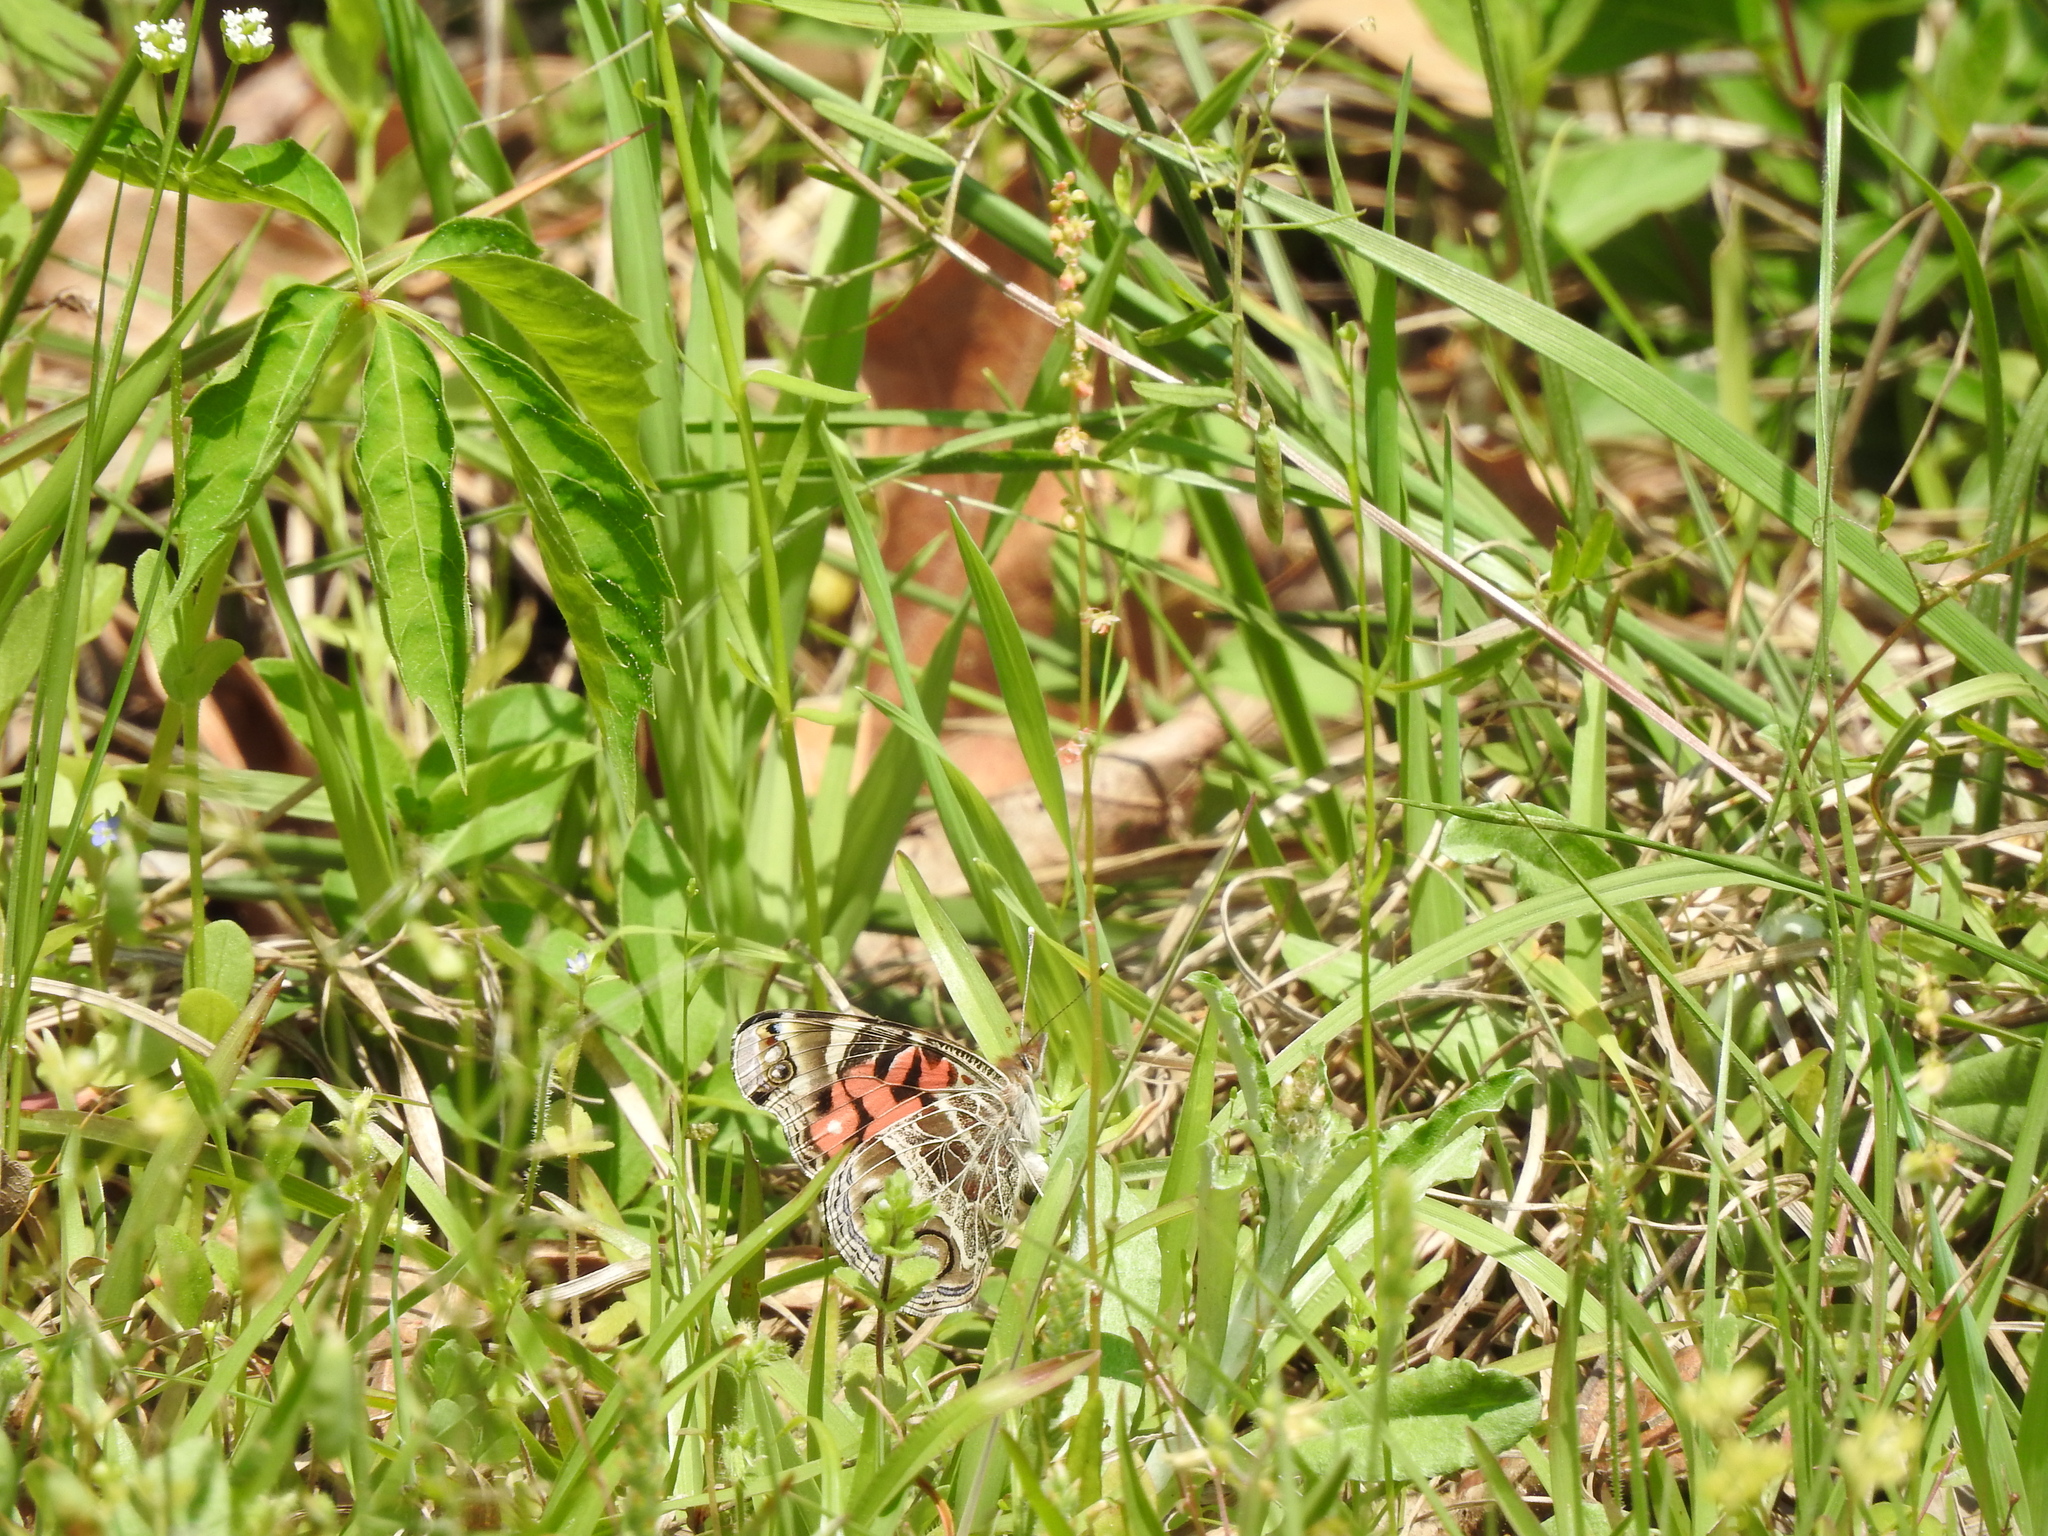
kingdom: Animalia
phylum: Arthropoda
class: Insecta
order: Lepidoptera
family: Nymphalidae
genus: Vanessa
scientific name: Vanessa virginiensis
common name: American lady
